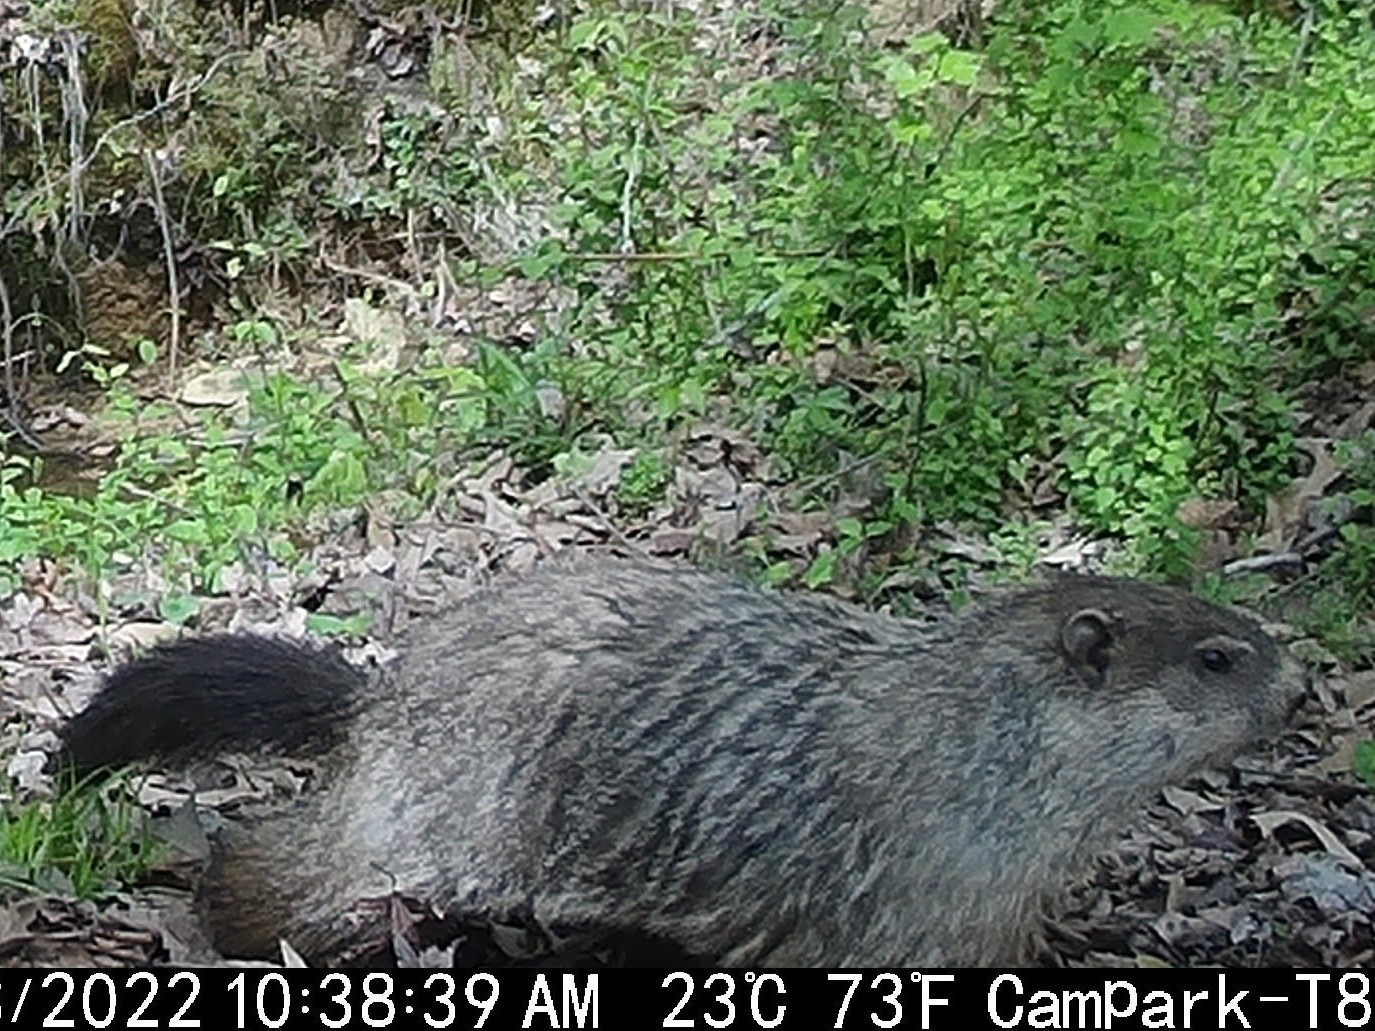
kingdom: Animalia
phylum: Chordata
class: Mammalia
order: Rodentia
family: Sciuridae
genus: Marmota
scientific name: Marmota monax
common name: Groundhog
